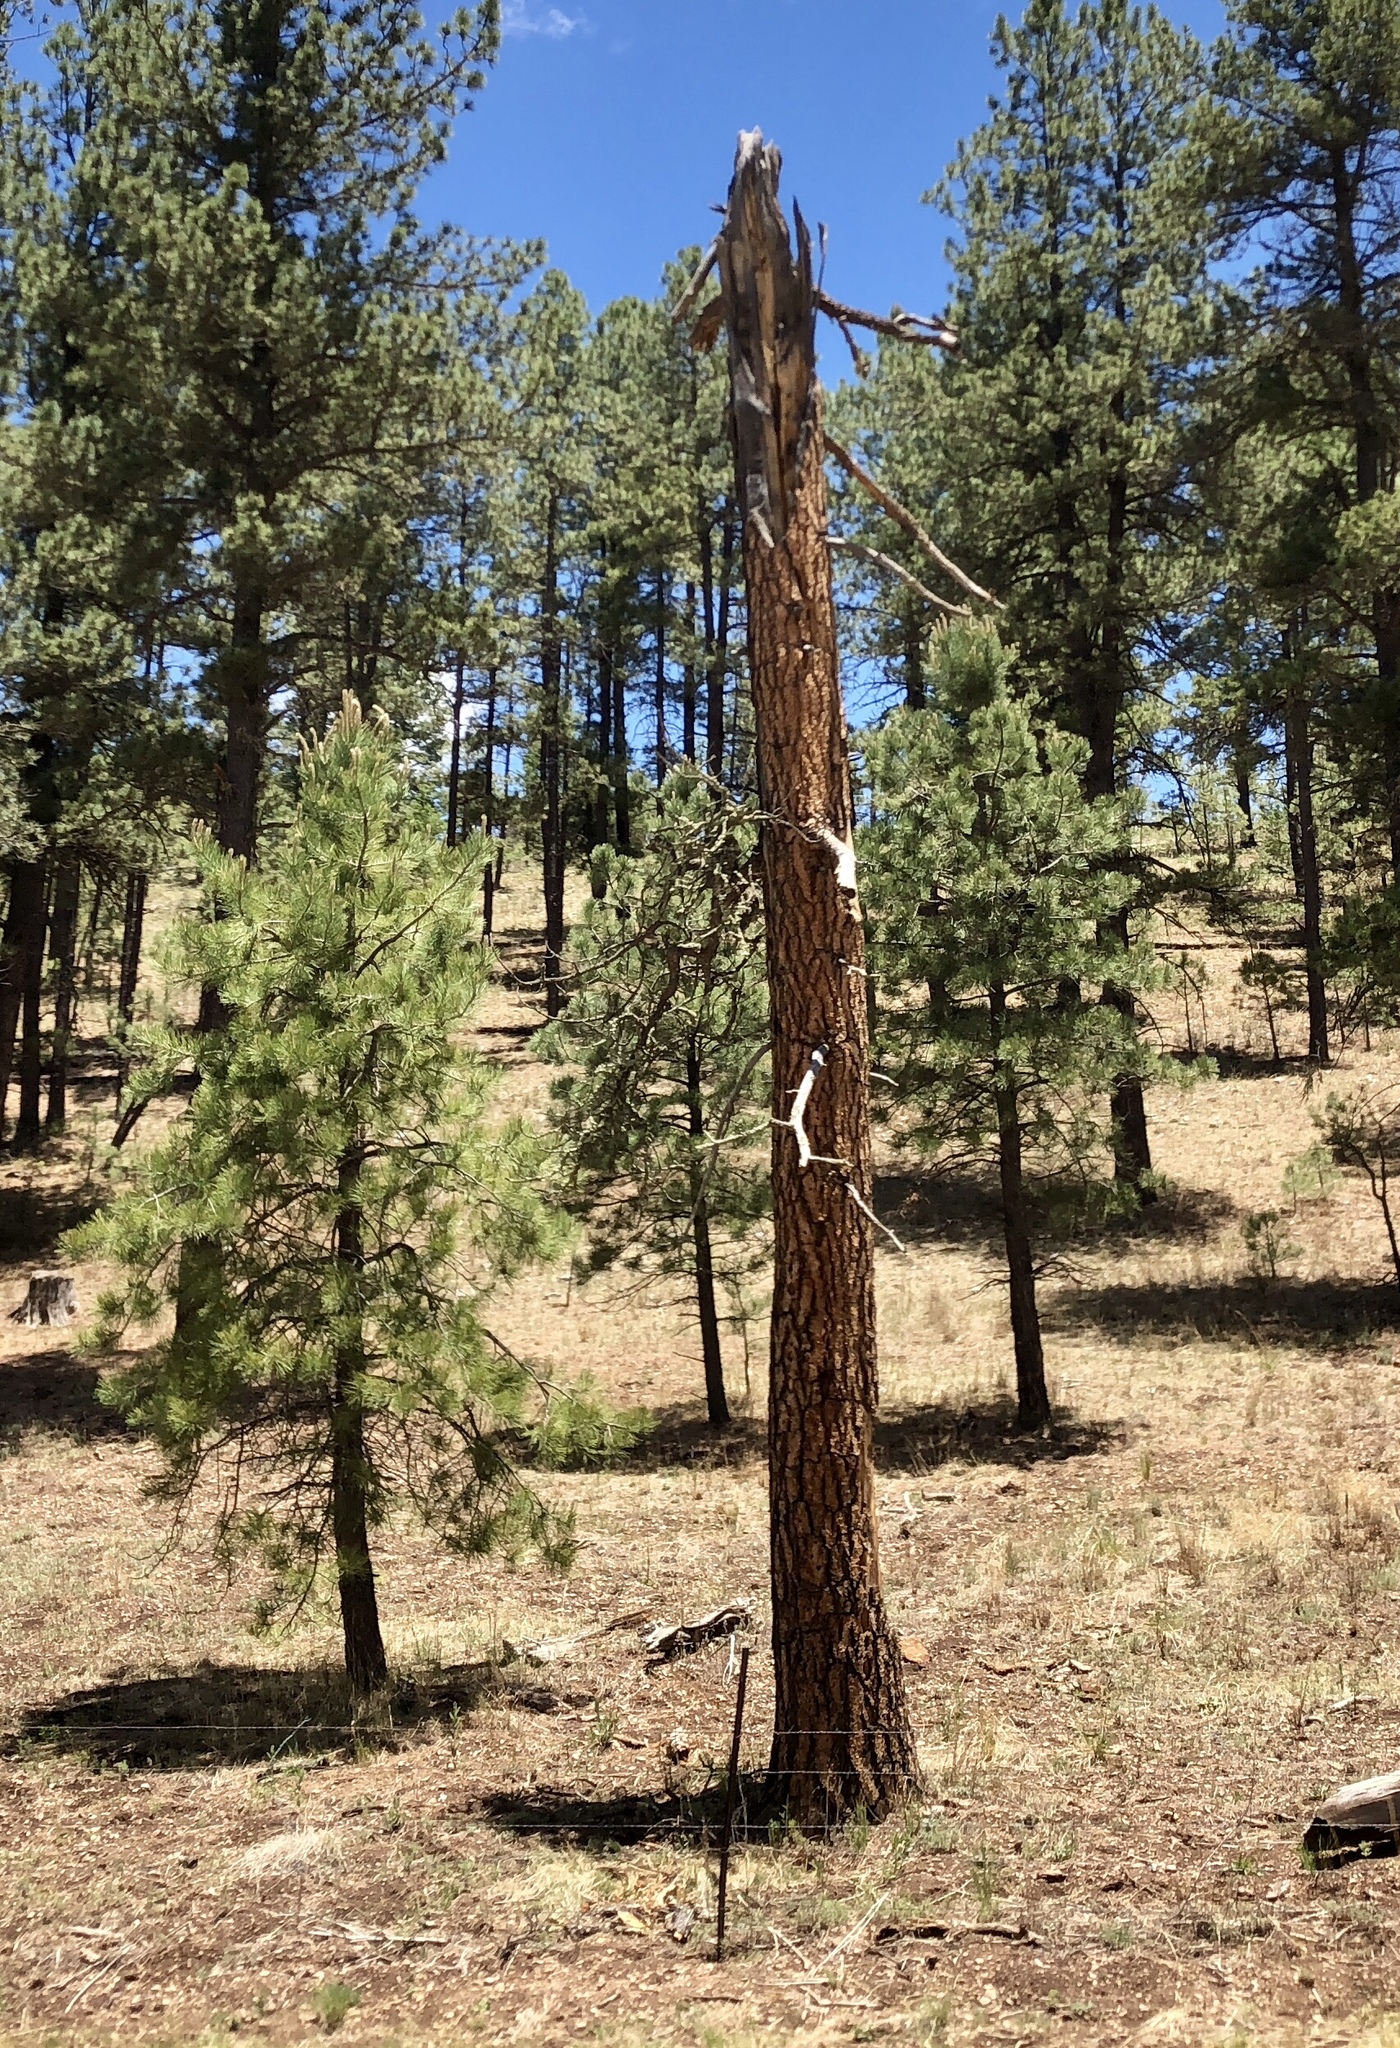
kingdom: Plantae
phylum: Tracheophyta
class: Pinopsida
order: Pinales
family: Pinaceae
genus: Pinus
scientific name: Pinus ponderosa
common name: Western yellow-pine
